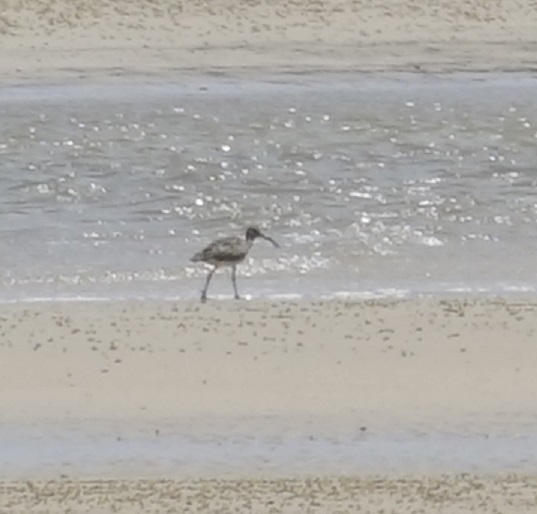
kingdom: Animalia
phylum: Chordata
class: Aves
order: Charadriiformes
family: Scolopacidae
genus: Numenius
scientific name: Numenius phaeopus
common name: Whimbrel
